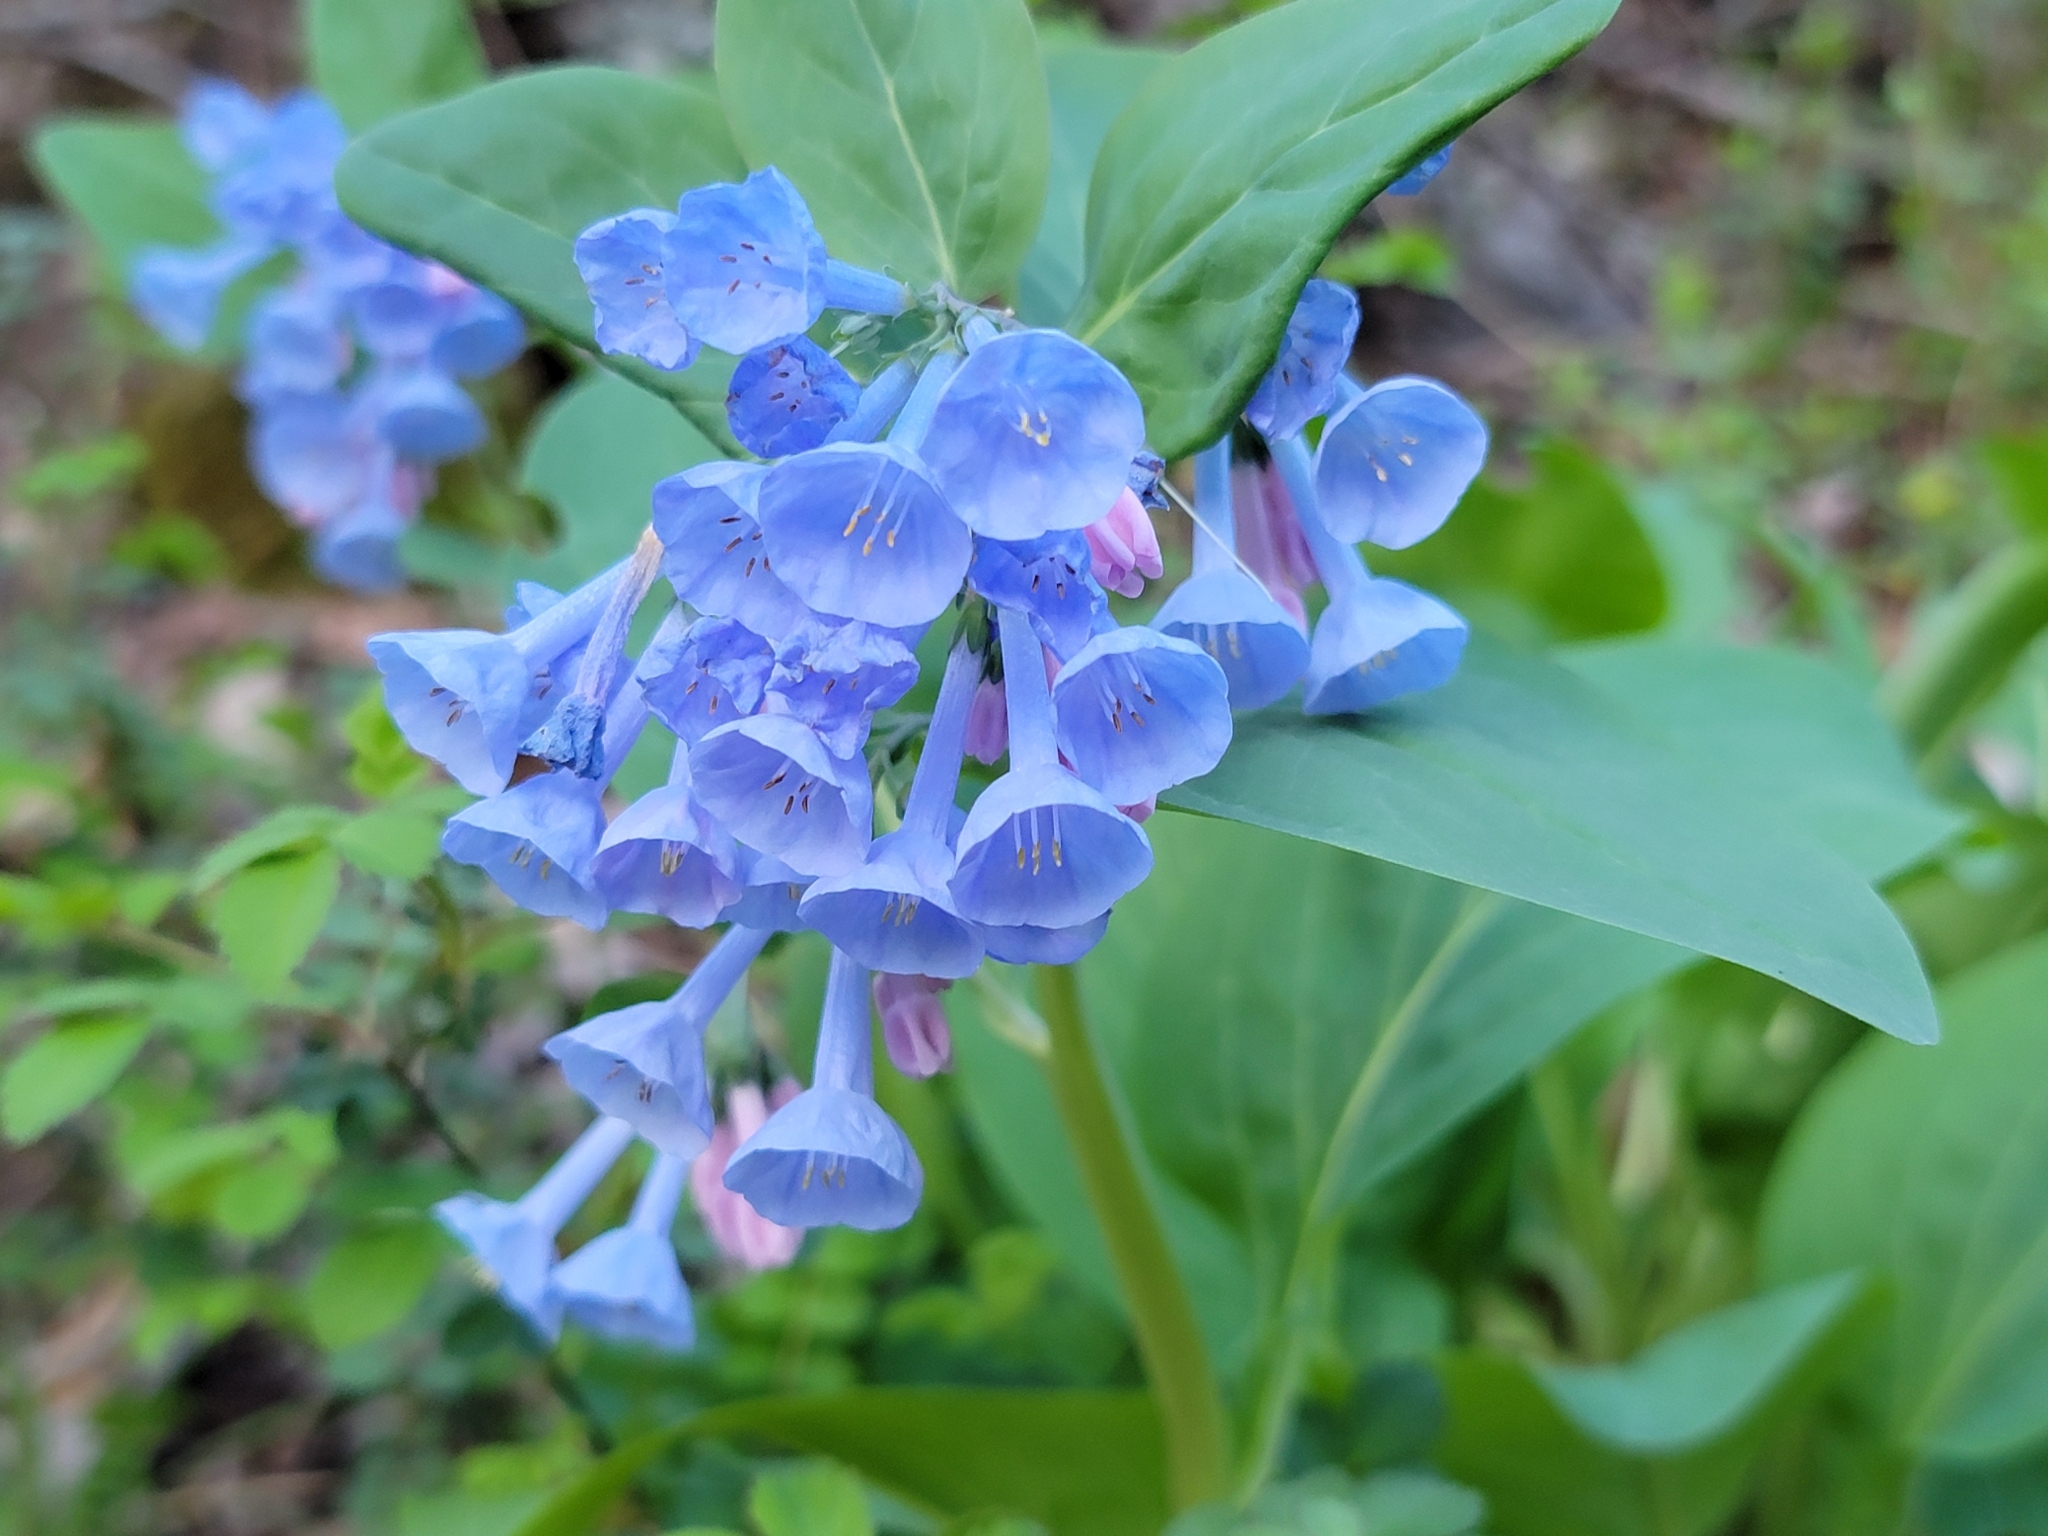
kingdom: Plantae
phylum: Tracheophyta
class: Magnoliopsida
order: Boraginales
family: Boraginaceae
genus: Mertensia
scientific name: Mertensia virginica
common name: Virginia bluebells
